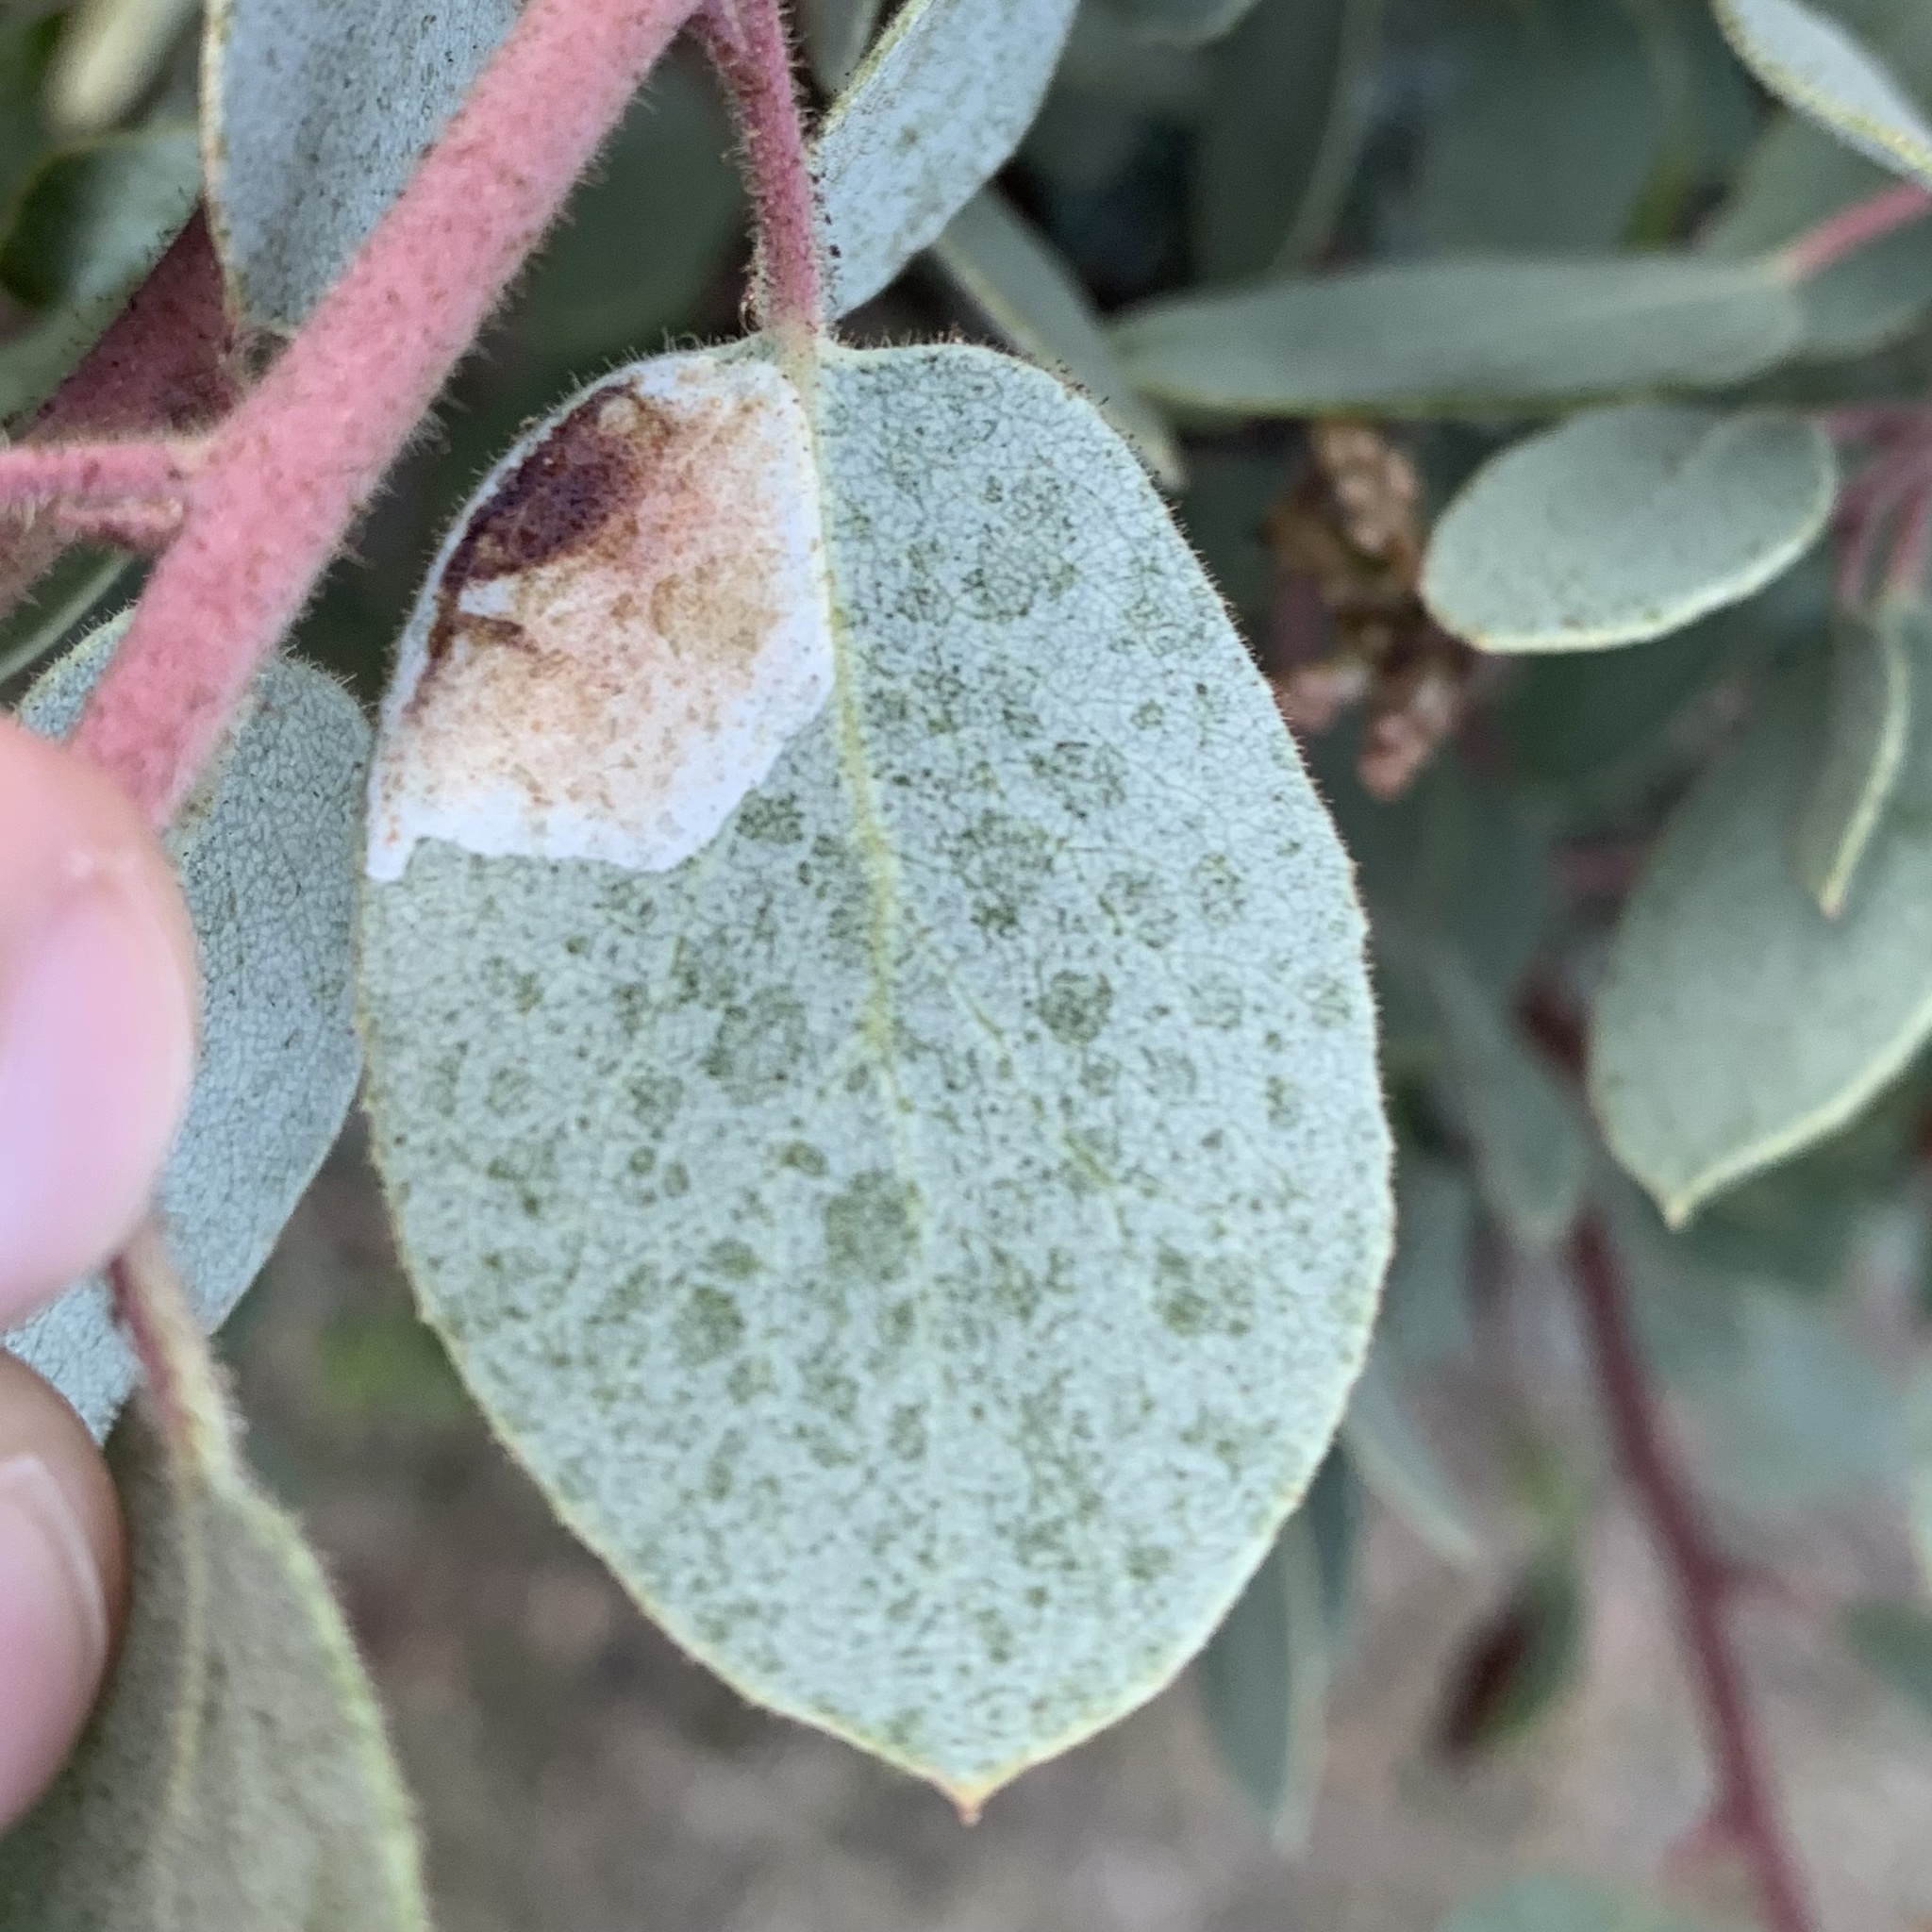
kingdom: Animalia
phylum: Arthropoda
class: Insecta
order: Lepidoptera
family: Gracillariidae
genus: Phyllonorycter
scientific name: Phyllonorycter manzanita
